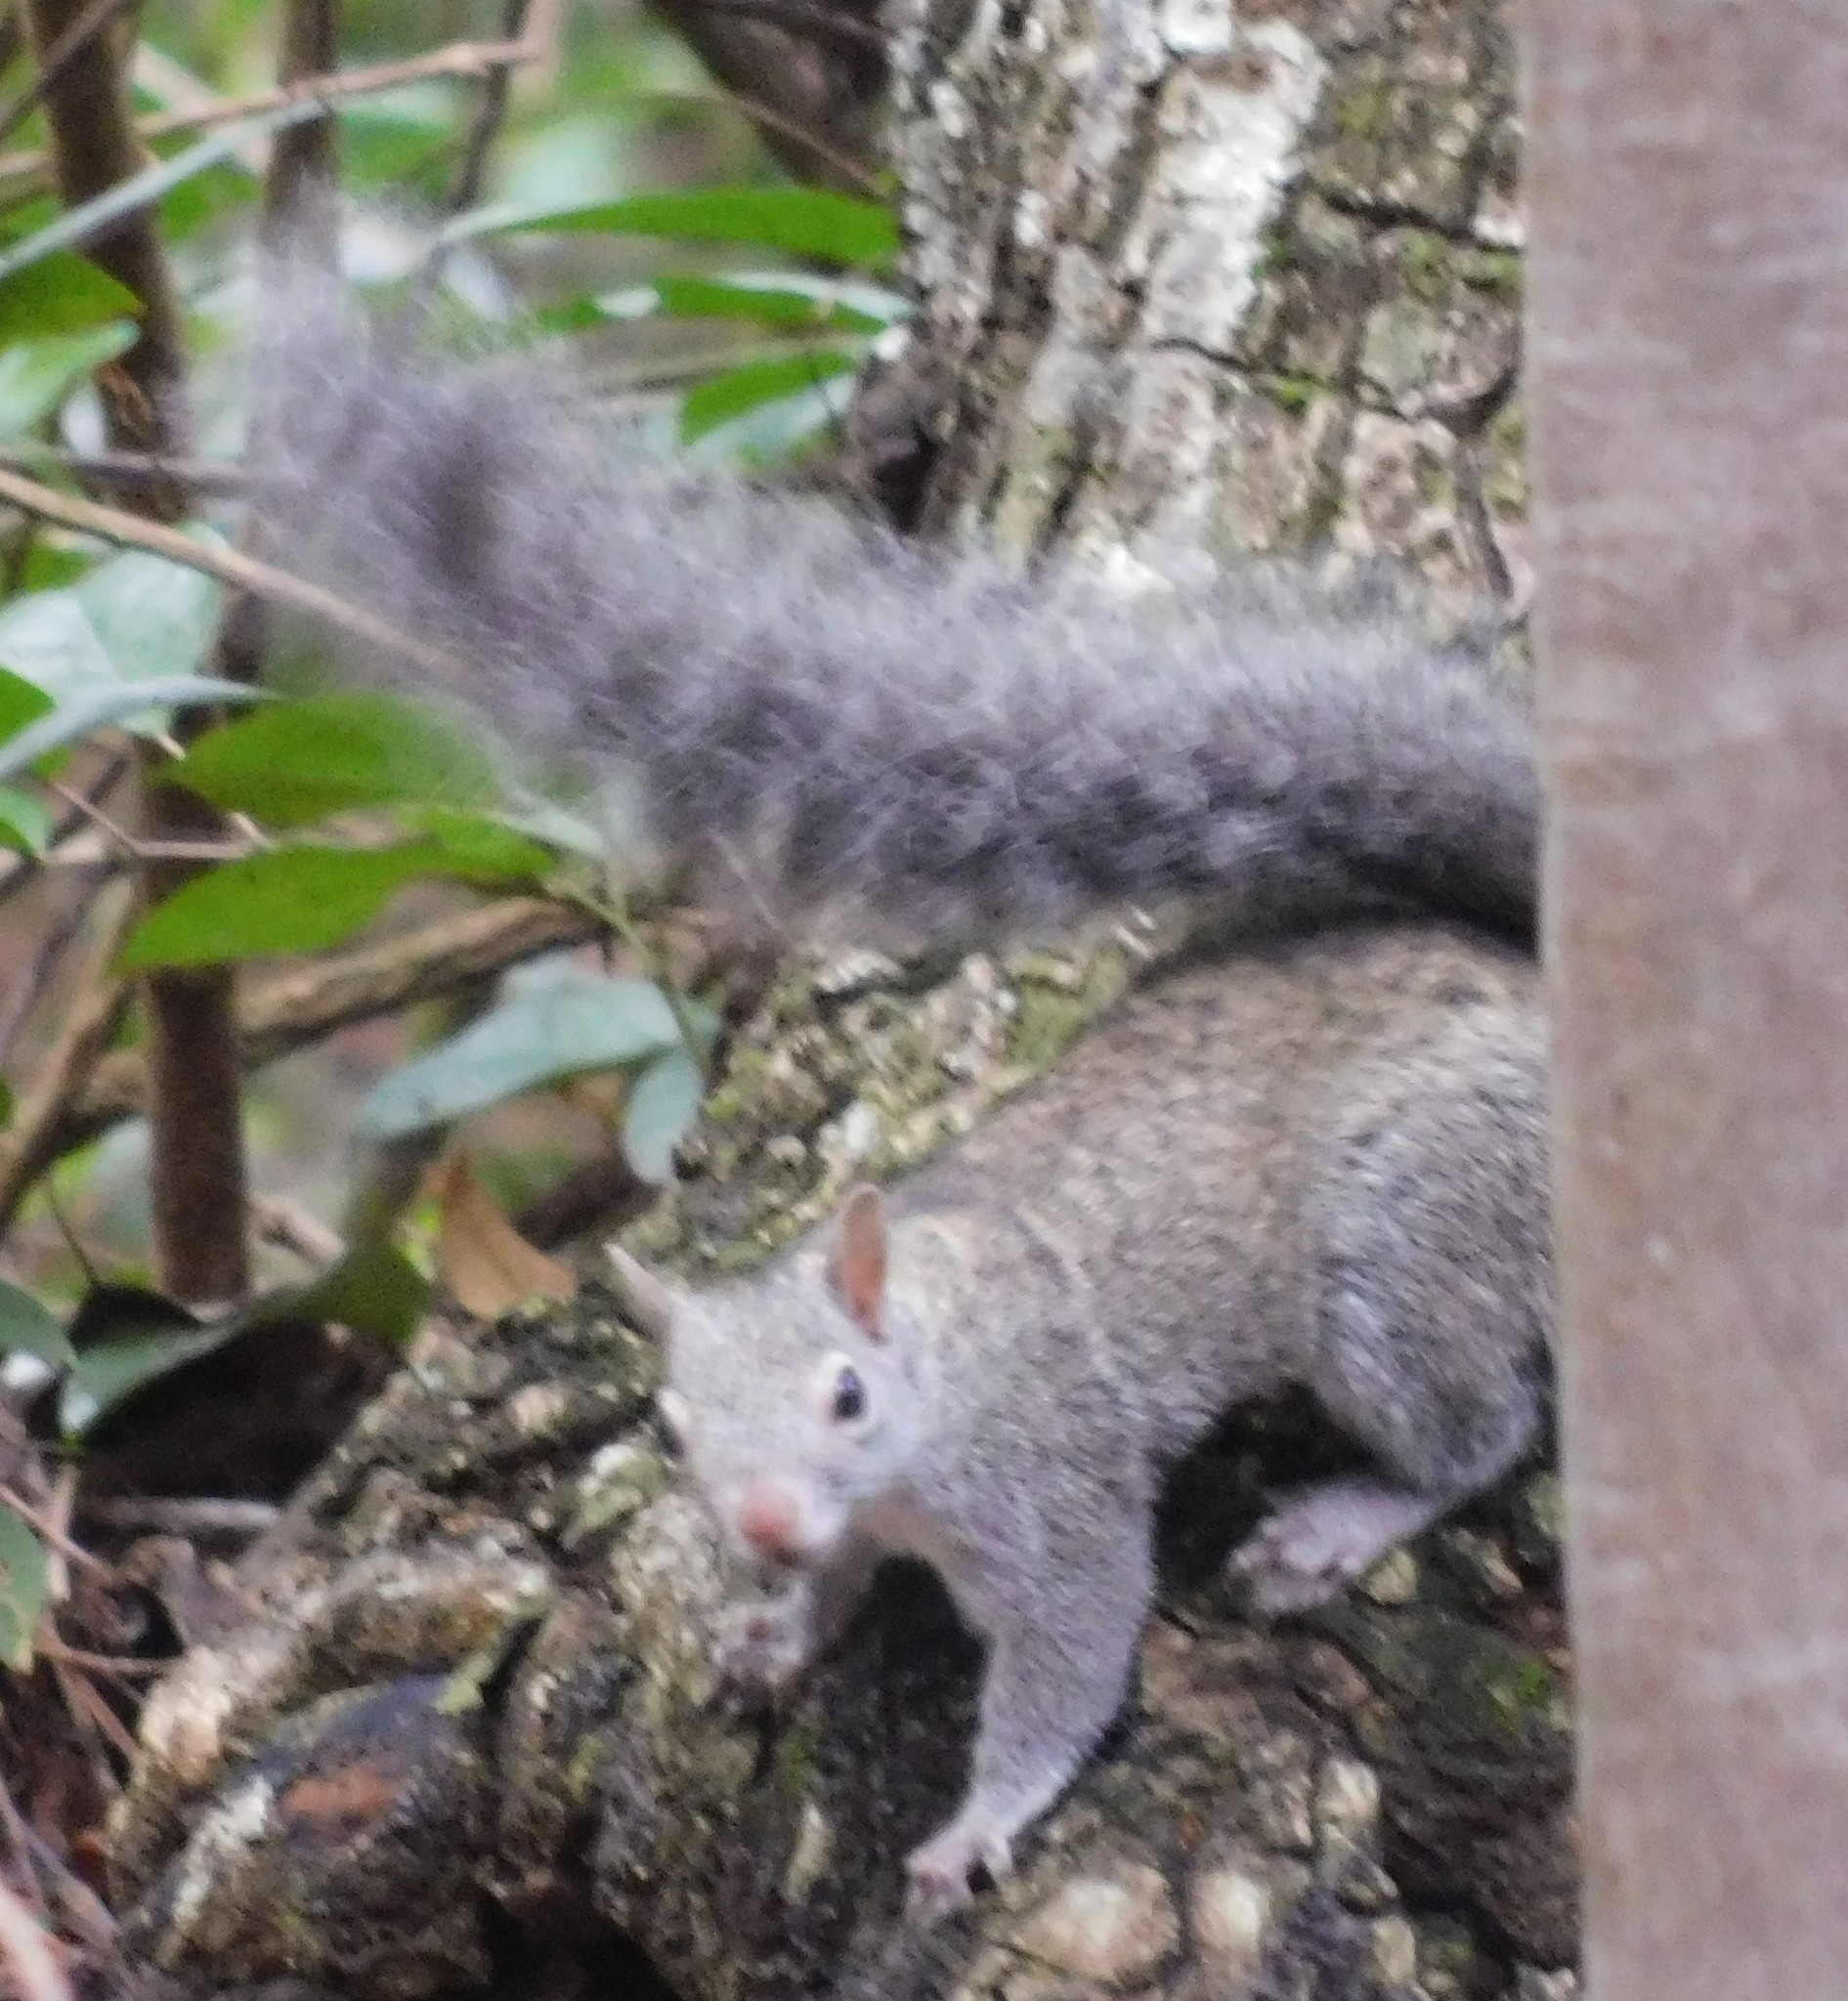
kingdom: Animalia
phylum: Chordata
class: Mammalia
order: Rodentia
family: Sciuridae
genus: Sciurus
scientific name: Sciurus yucatanensis
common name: Yucatan squirrel
